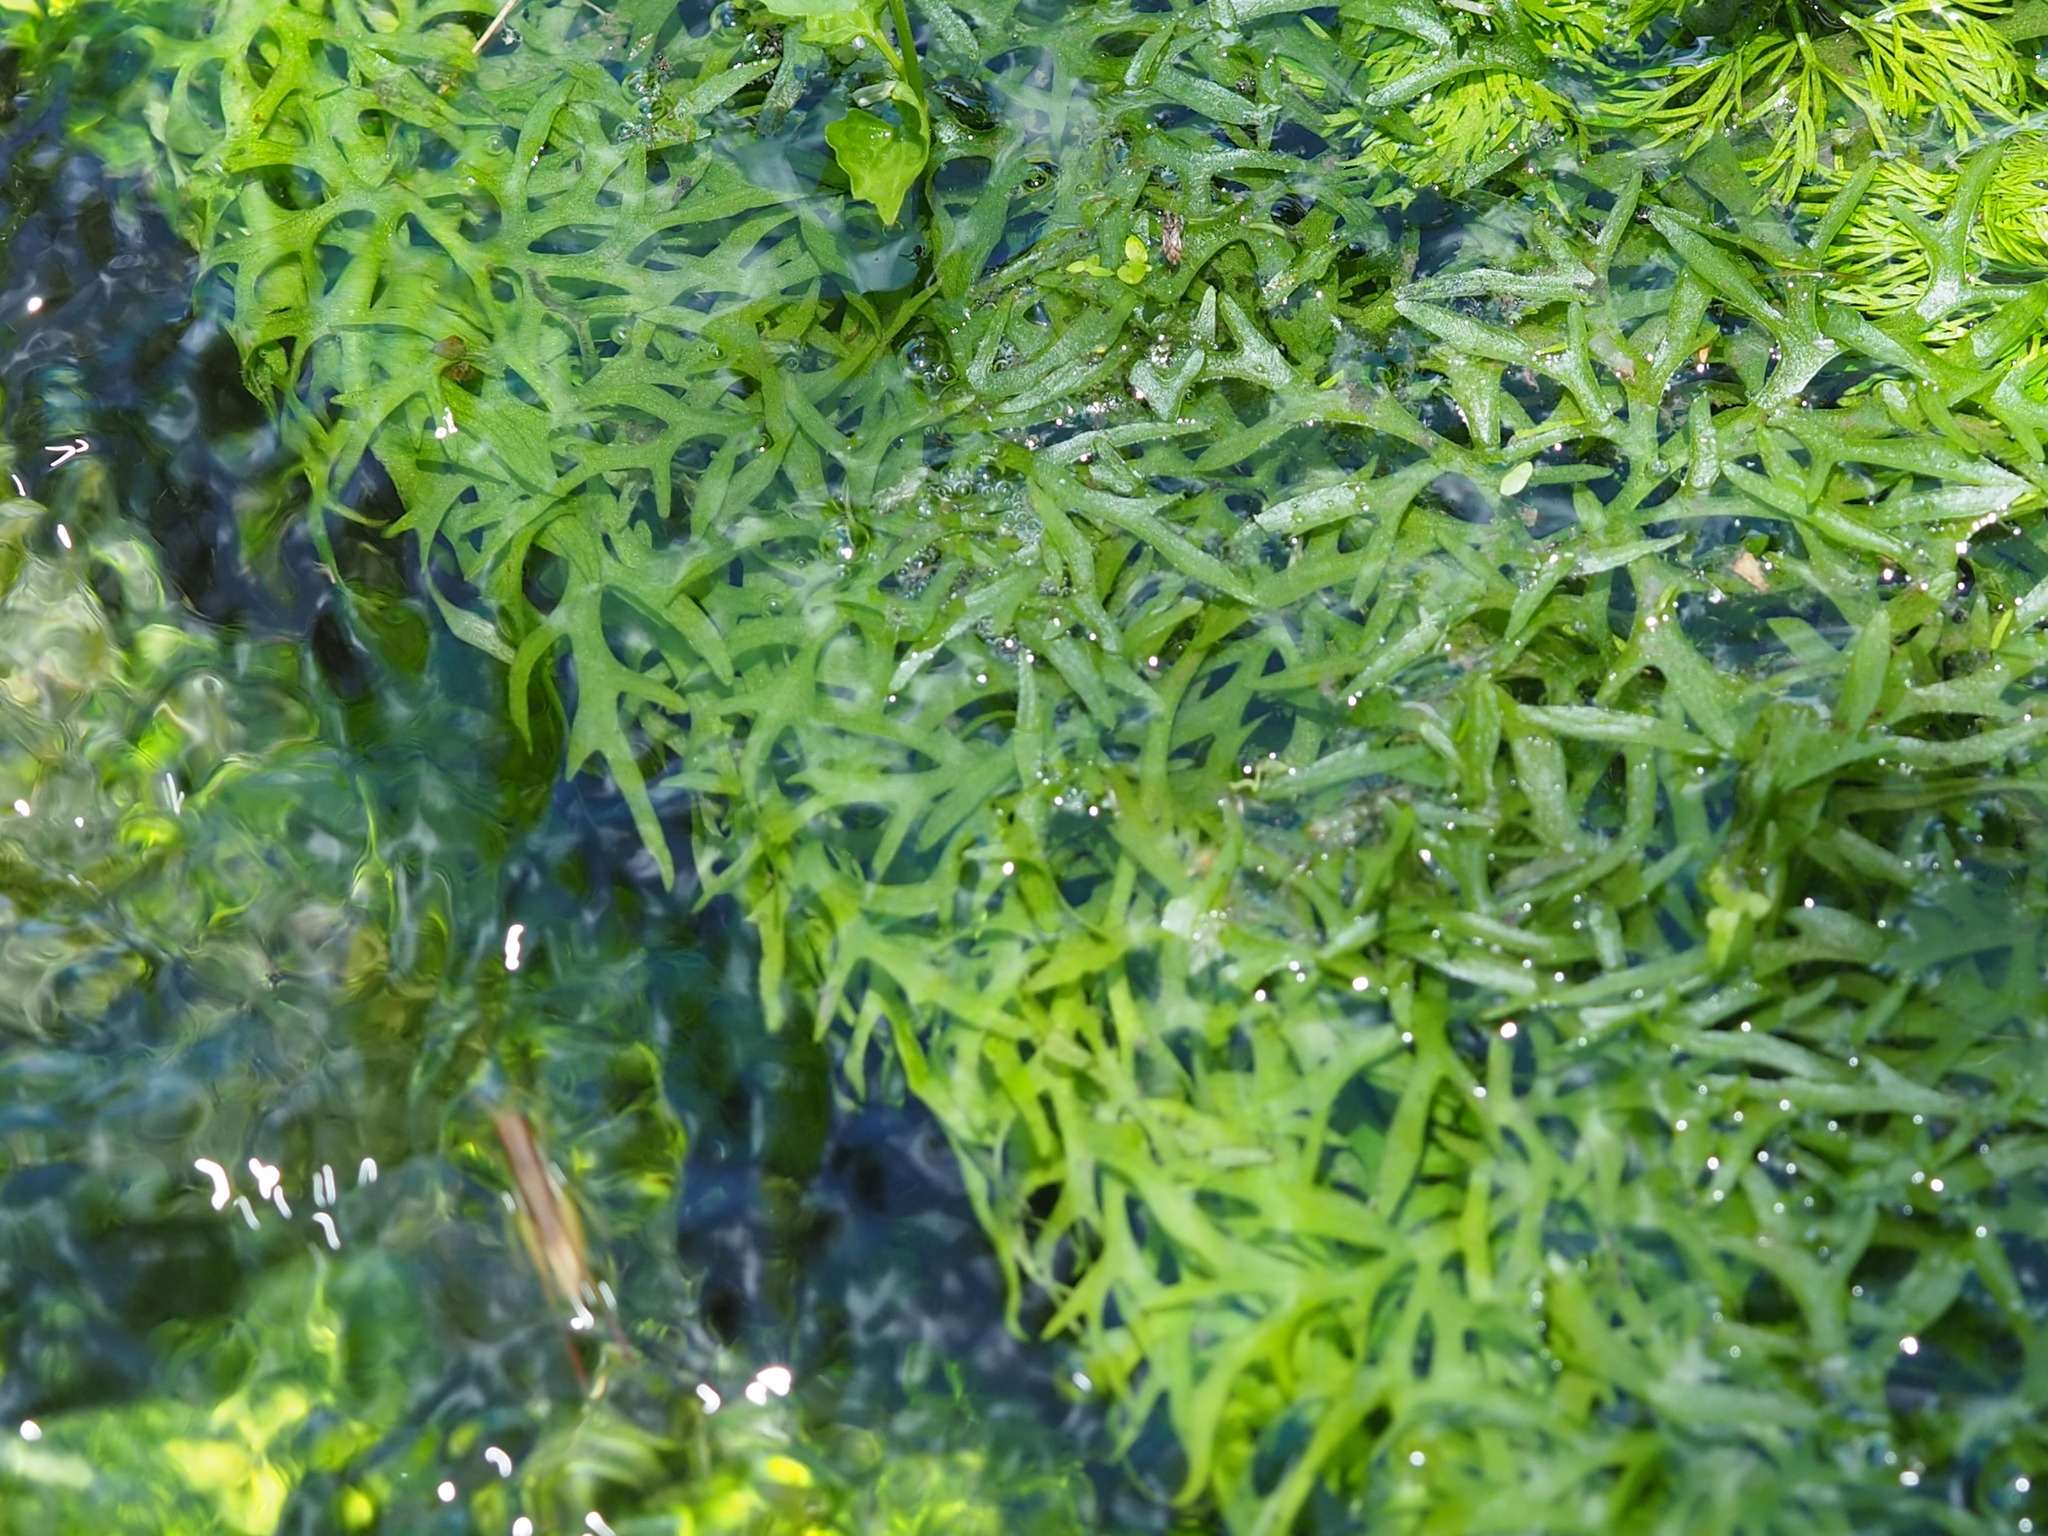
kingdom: Plantae
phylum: Tracheophyta
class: Polypodiopsida
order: Polypodiales
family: Pteridaceae
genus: Ceratopteris
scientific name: Ceratopteris thalictroides
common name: Water fern
